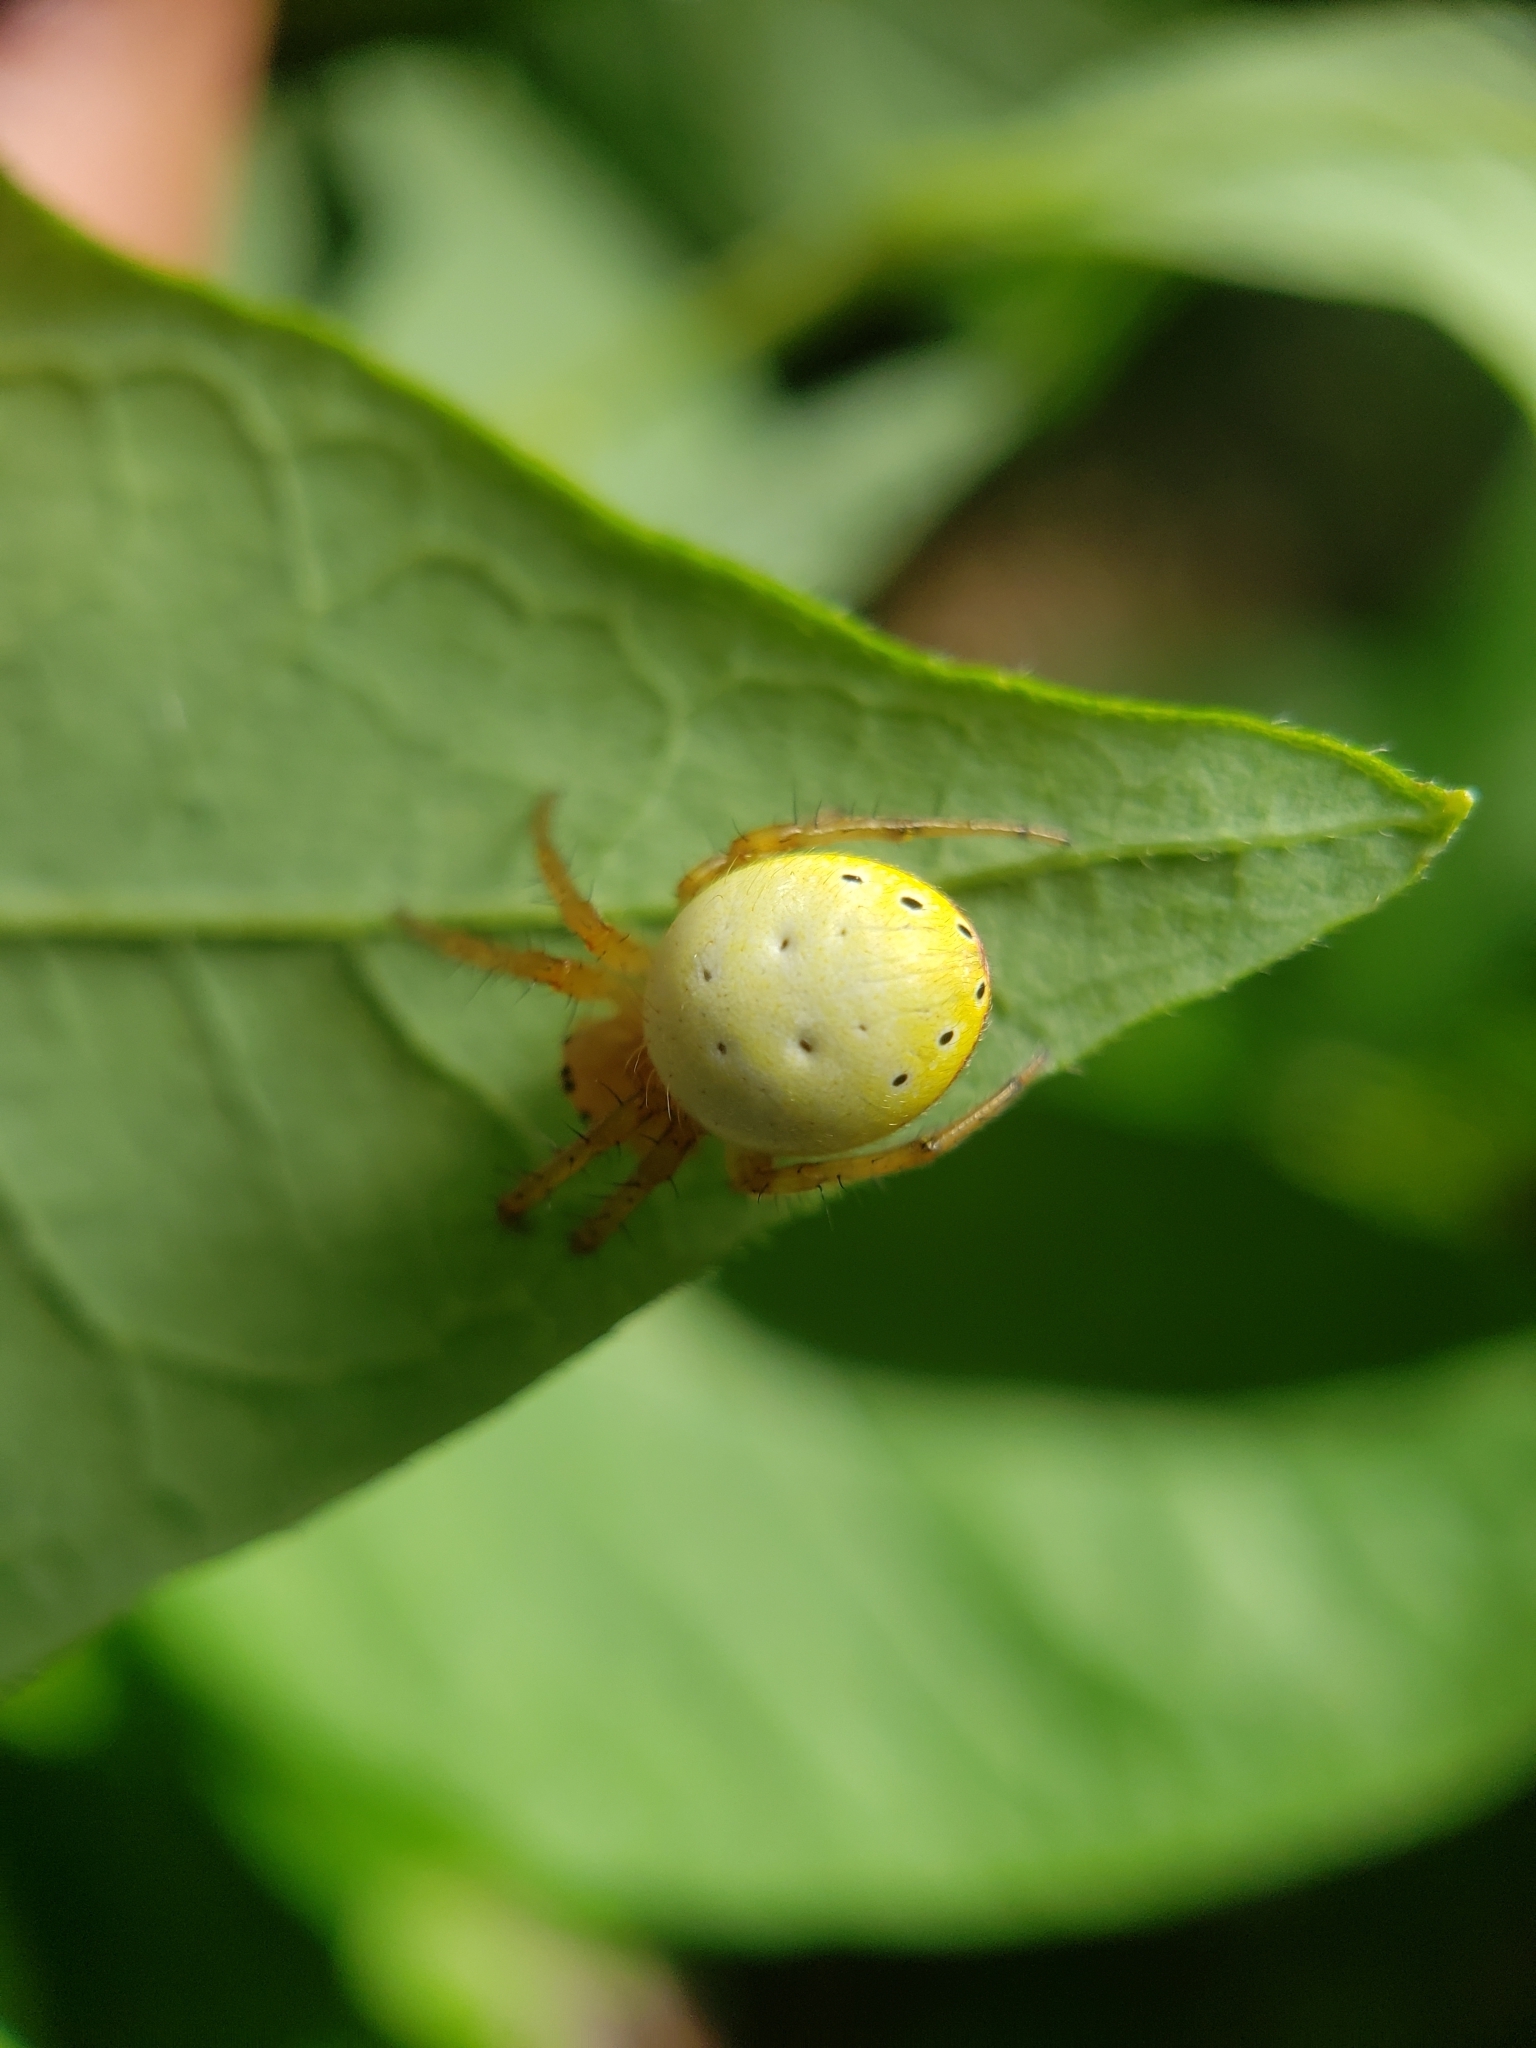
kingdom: Animalia
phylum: Arthropoda
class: Arachnida
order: Araneae
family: Araneidae
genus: Araniella
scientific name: Araniella displicata
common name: Sixspotted orb weaver
